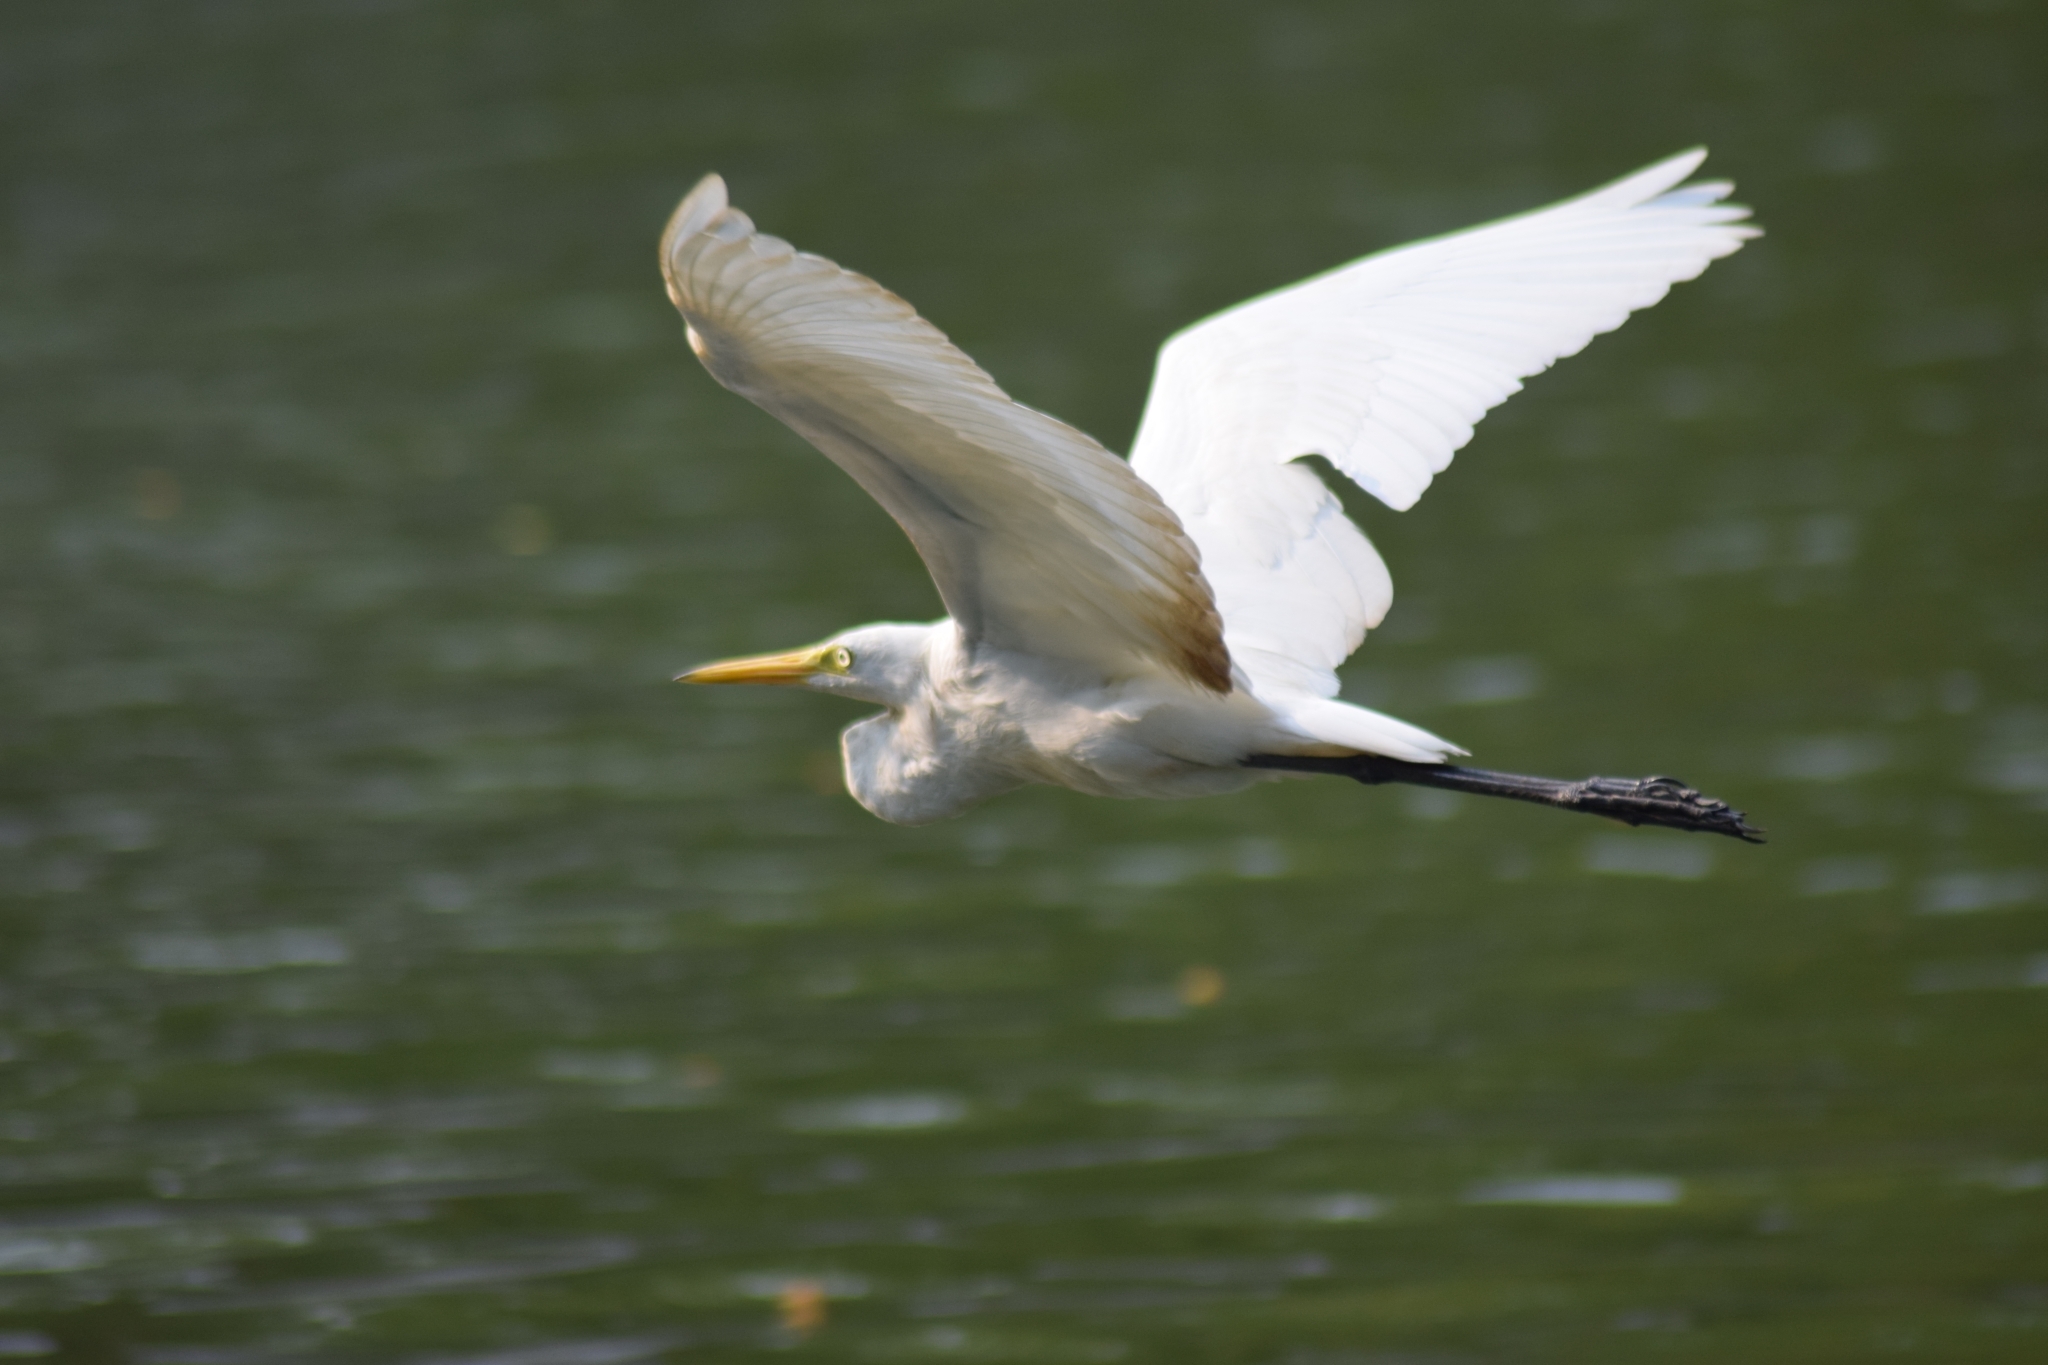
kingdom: Animalia
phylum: Chordata
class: Aves
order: Pelecaniformes
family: Ardeidae
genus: Egretta
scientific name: Egretta intermedia
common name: Intermediate egret
